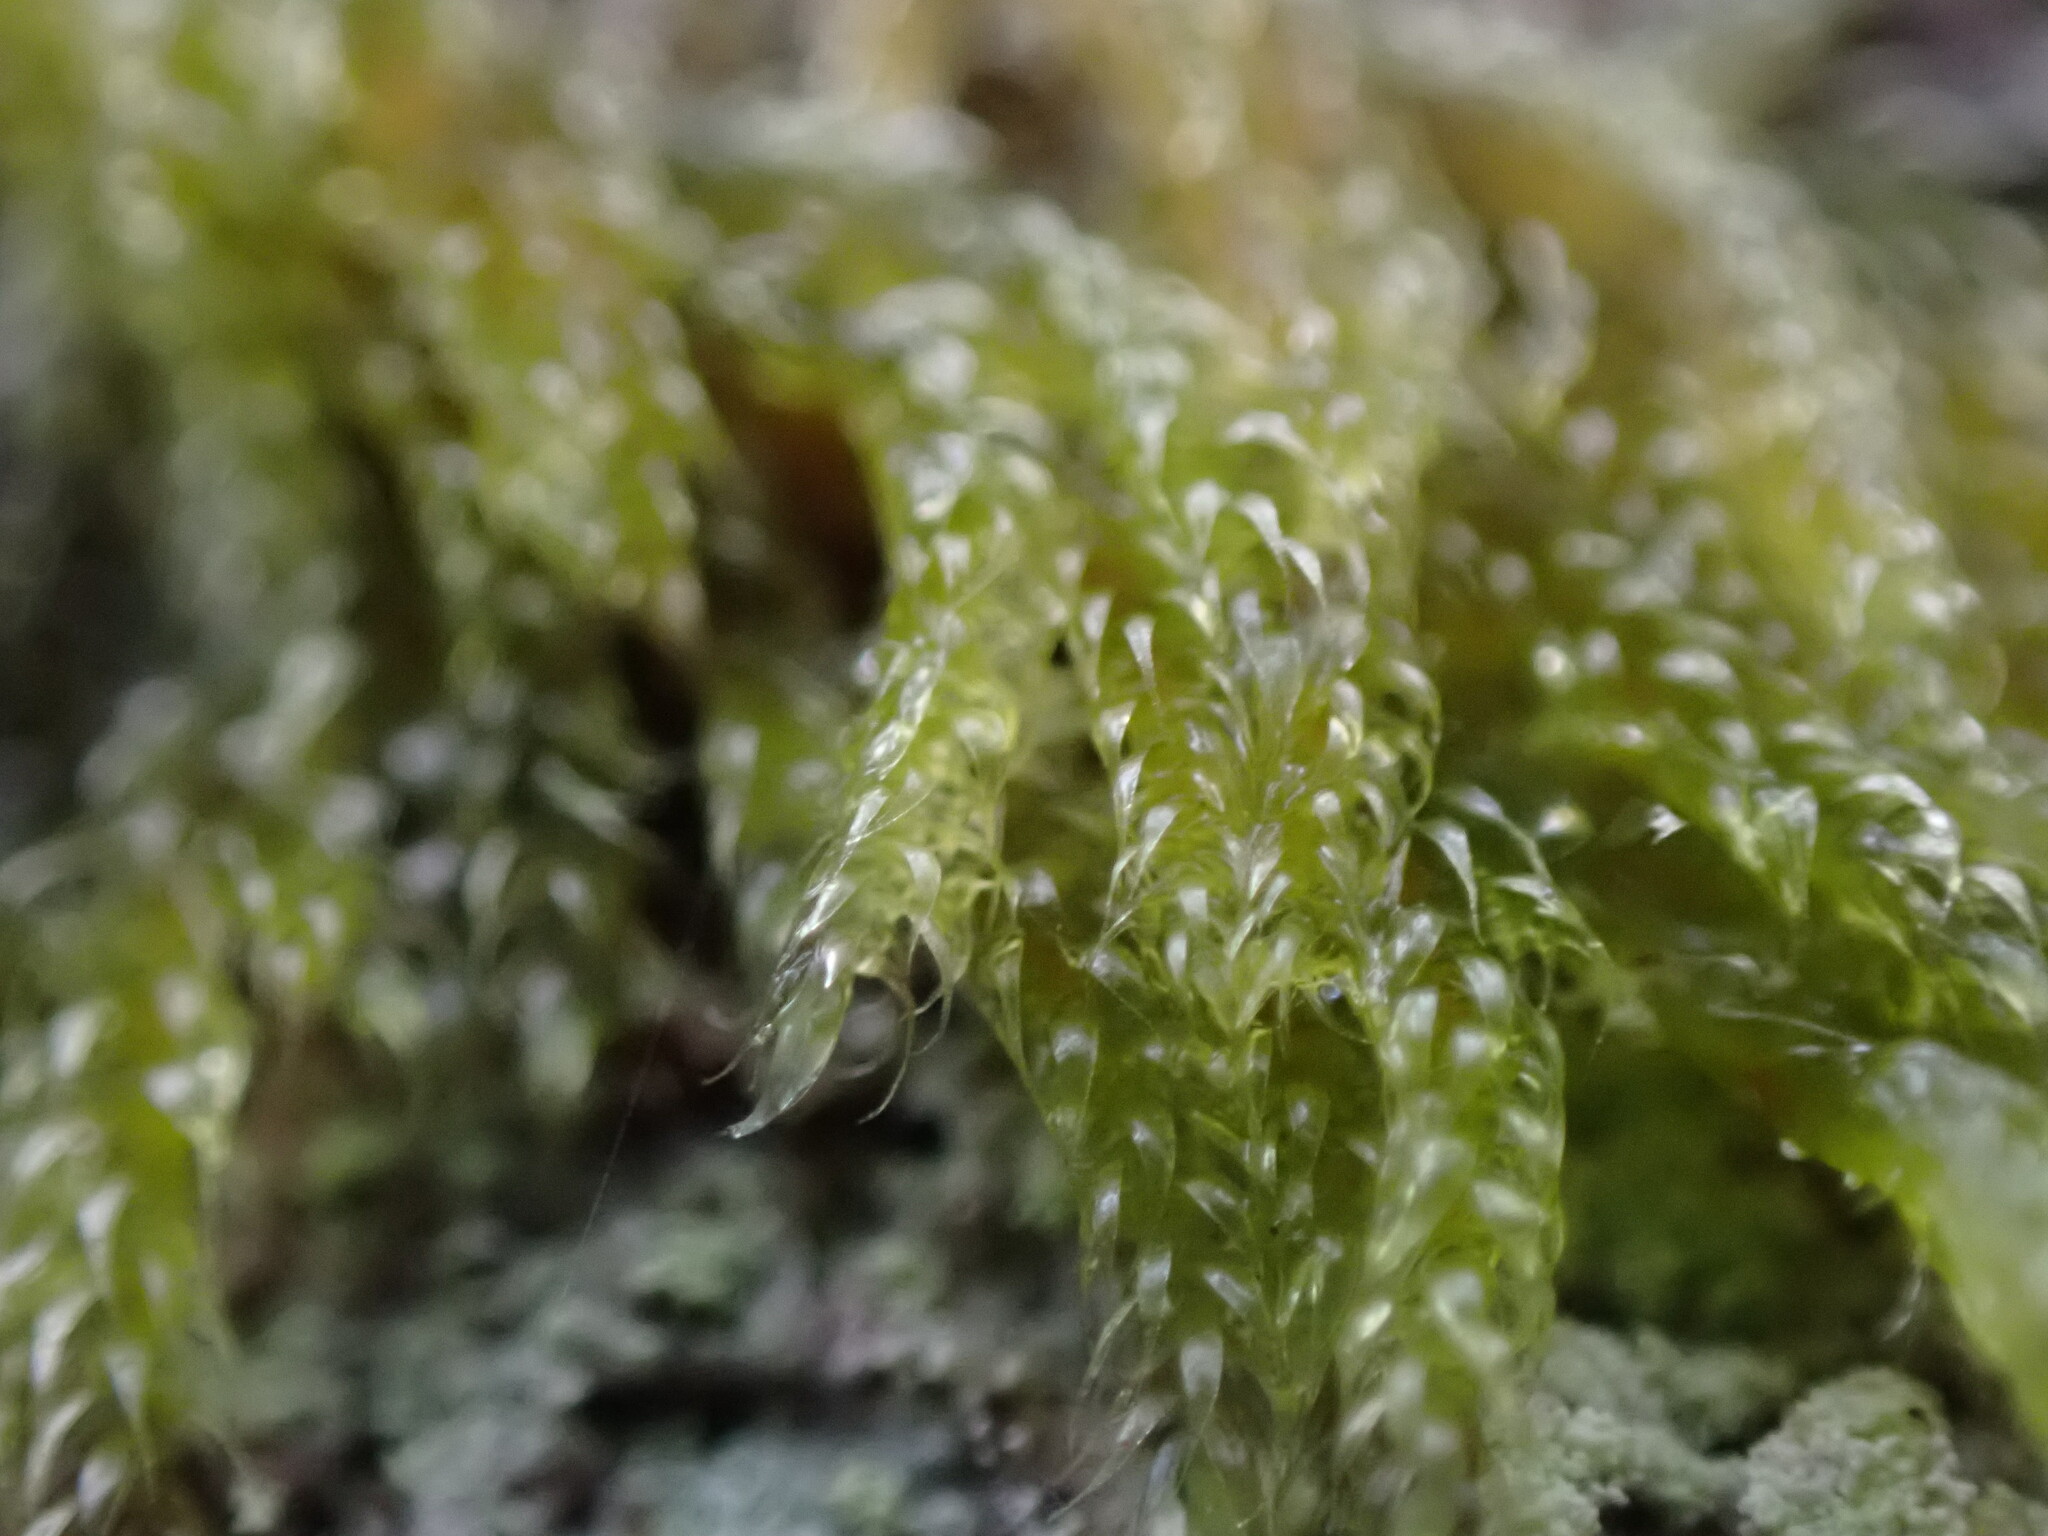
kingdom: Plantae
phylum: Bryophyta
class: Bryopsida
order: Hypnales
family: Pylaisiadelphaceae
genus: Trochophyllohypnum
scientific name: Trochophyllohypnum circinale
